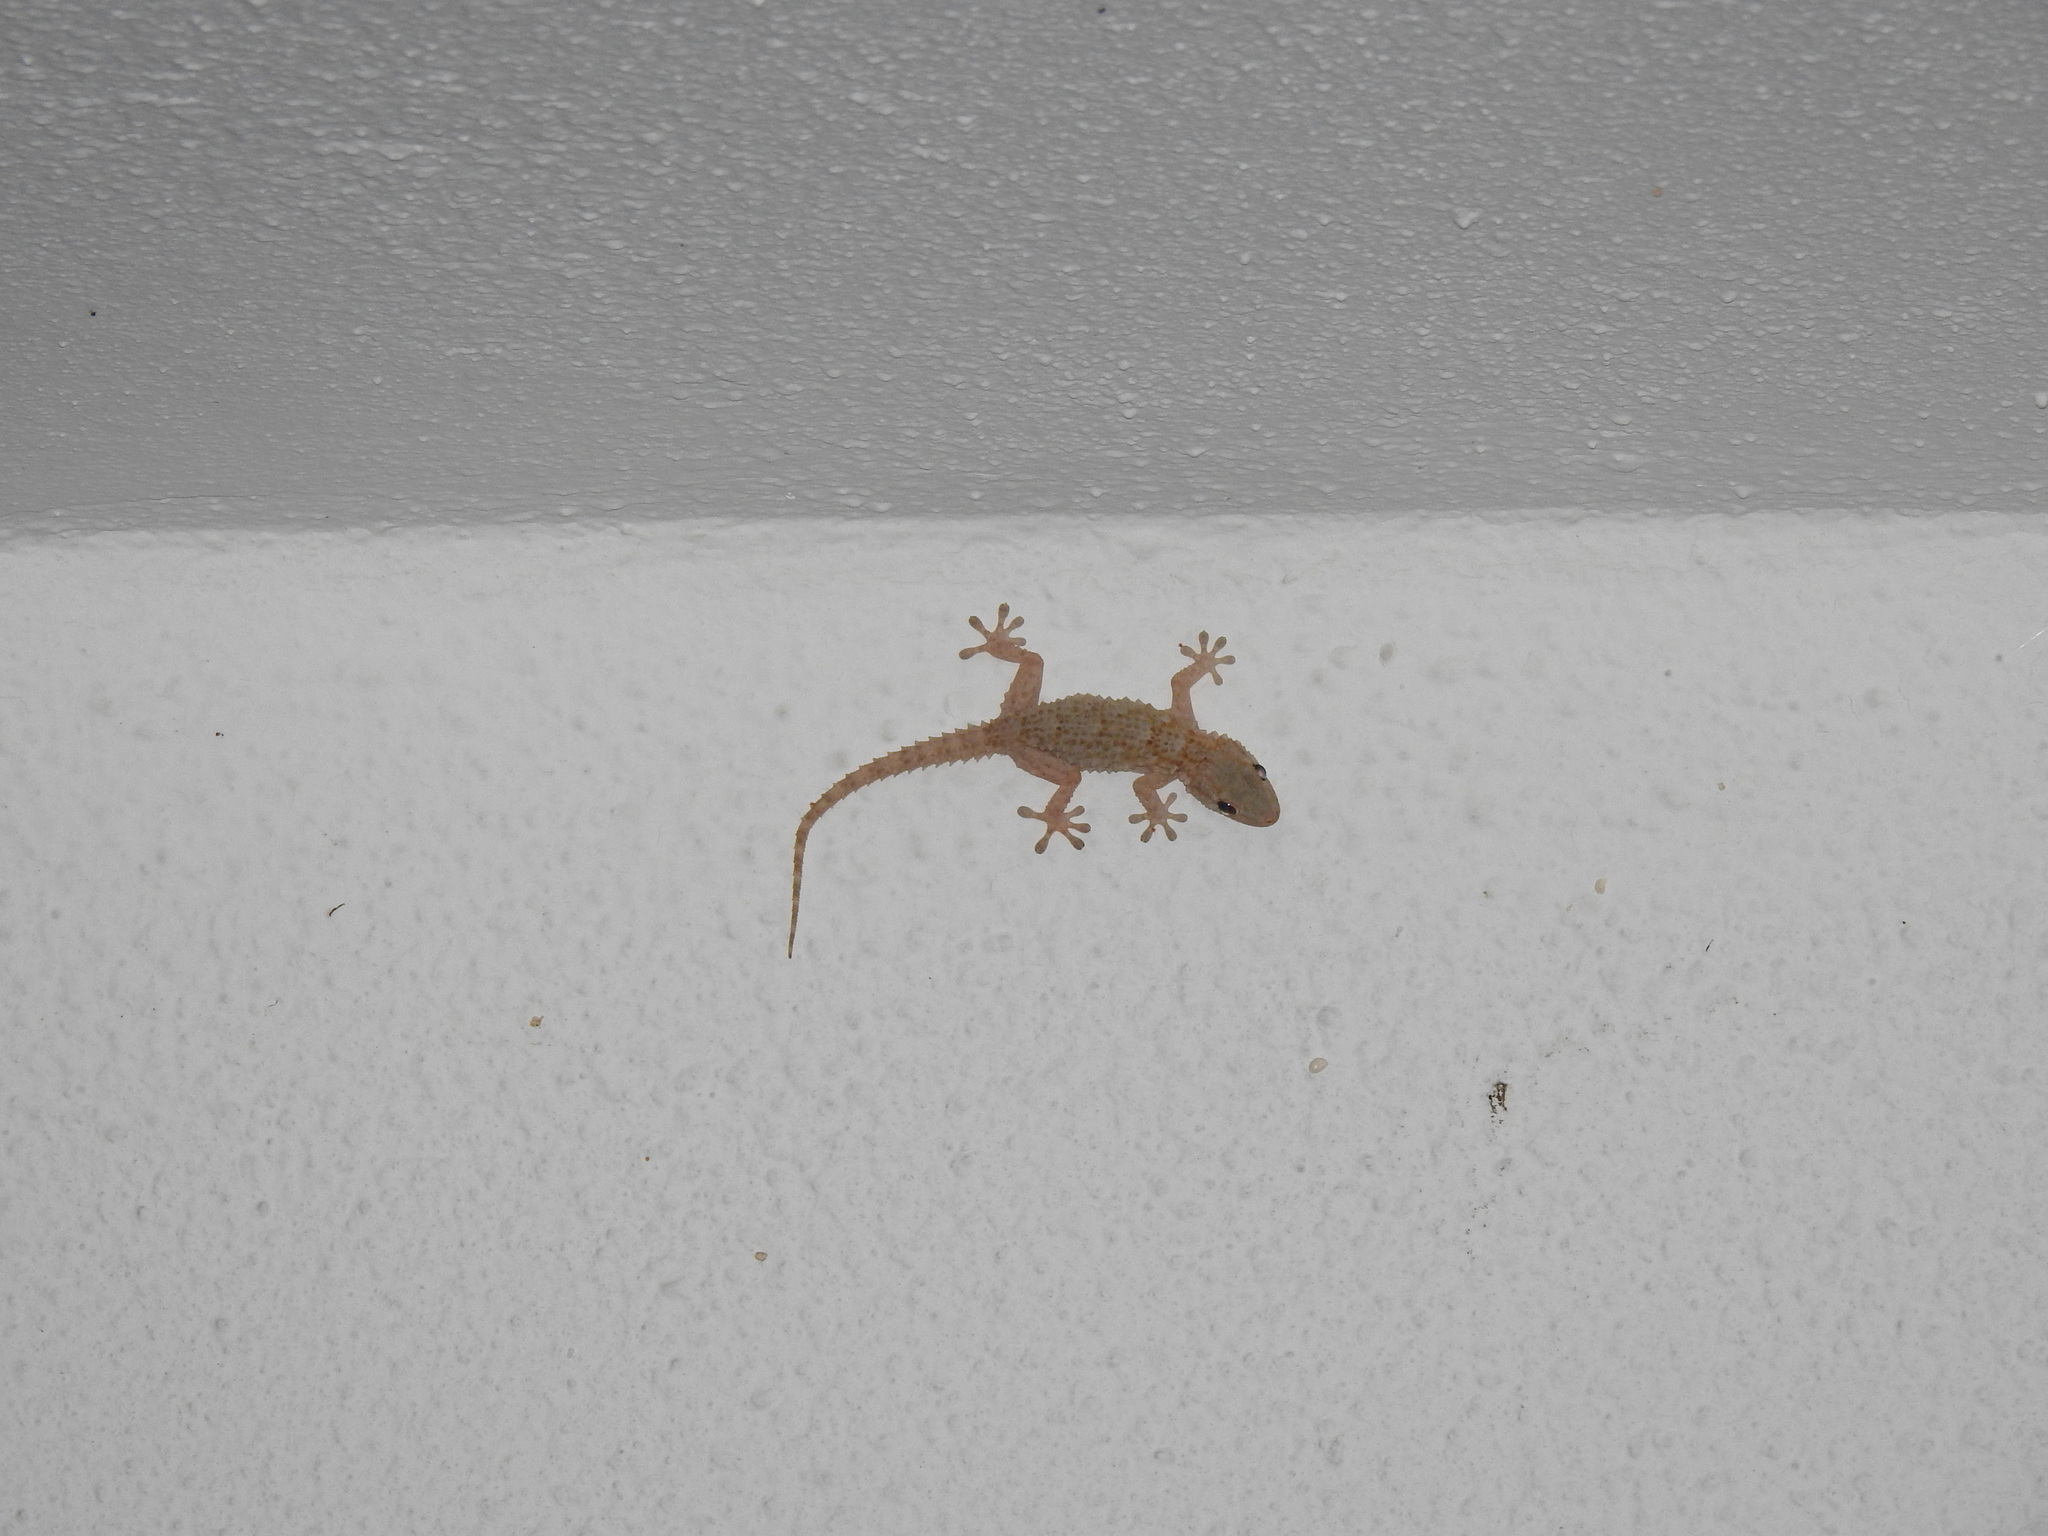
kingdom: Animalia
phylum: Chordata
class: Squamata
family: Phyllodactylidae
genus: Tarentola
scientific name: Tarentola mauritanica
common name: Moorish gecko
